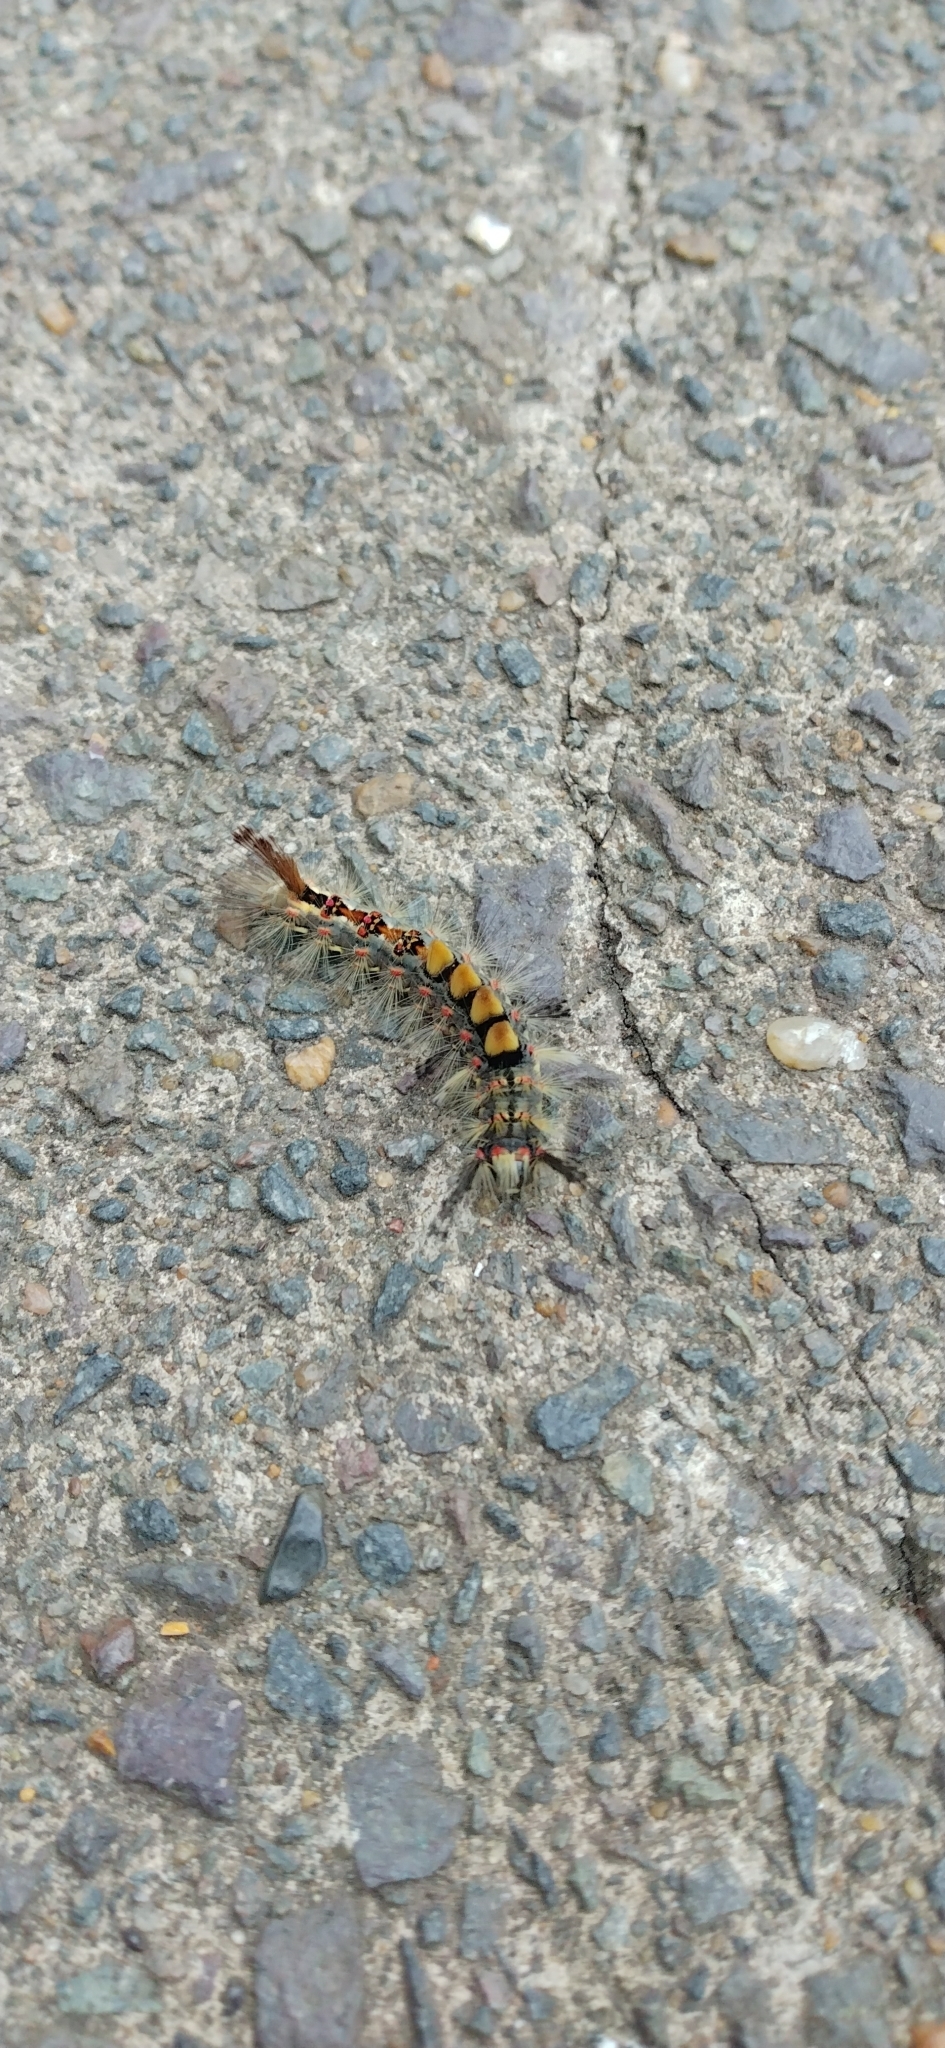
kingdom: Animalia
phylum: Arthropoda
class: Insecta
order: Lepidoptera
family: Erebidae
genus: Orgyia
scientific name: Orgyia antiqua
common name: Vapourer
